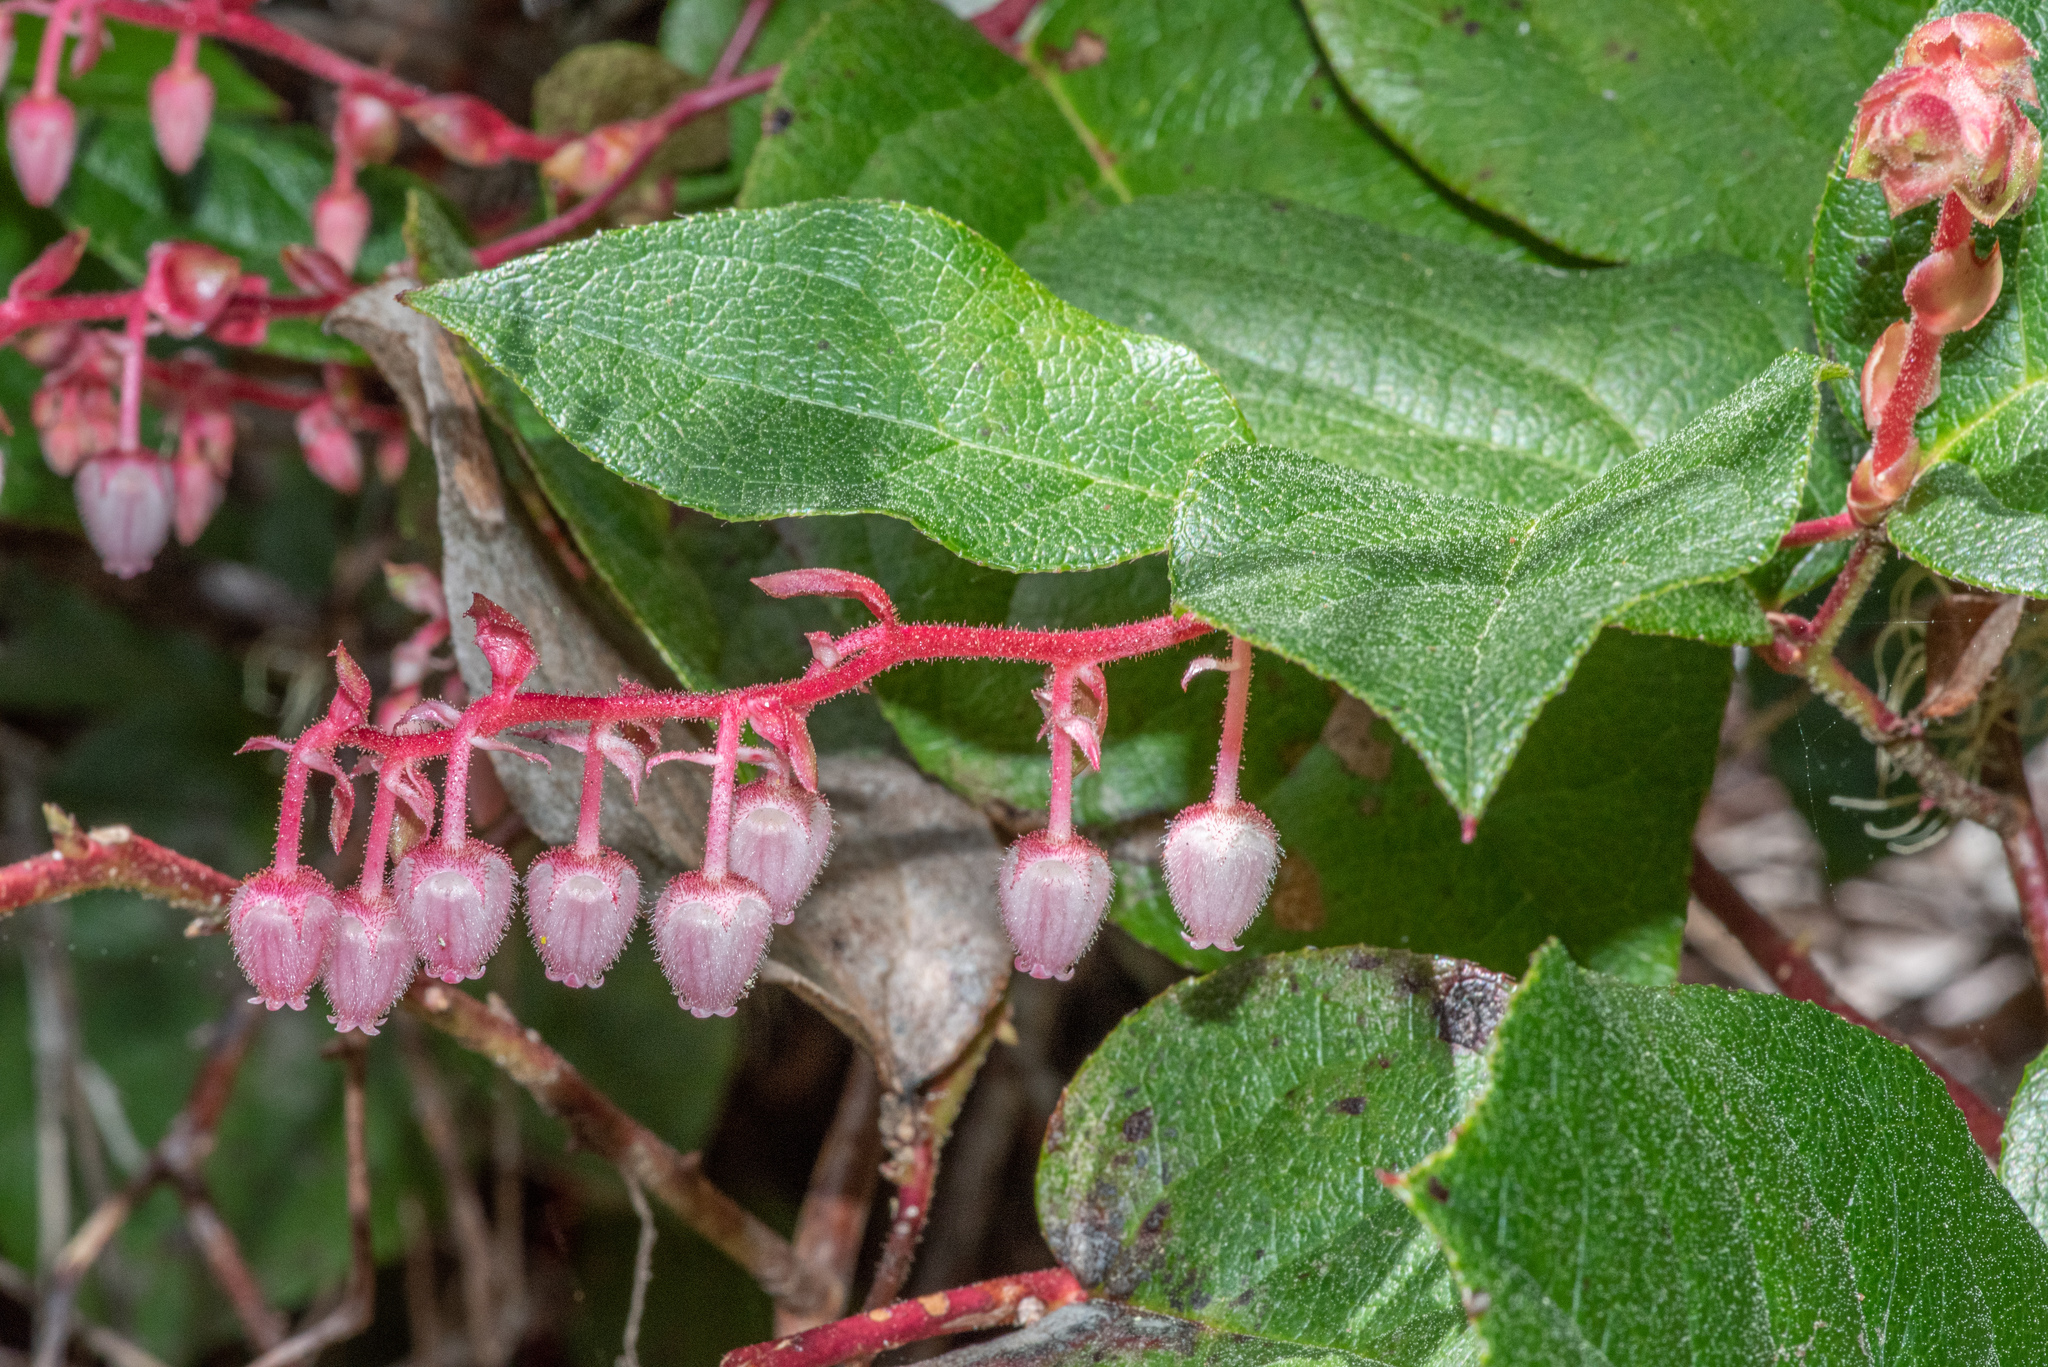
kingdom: Plantae
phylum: Tracheophyta
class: Magnoliopsida
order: Ericales
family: Ericaceae
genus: Gaultheria
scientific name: Gaultheria shallon
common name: Shallon
